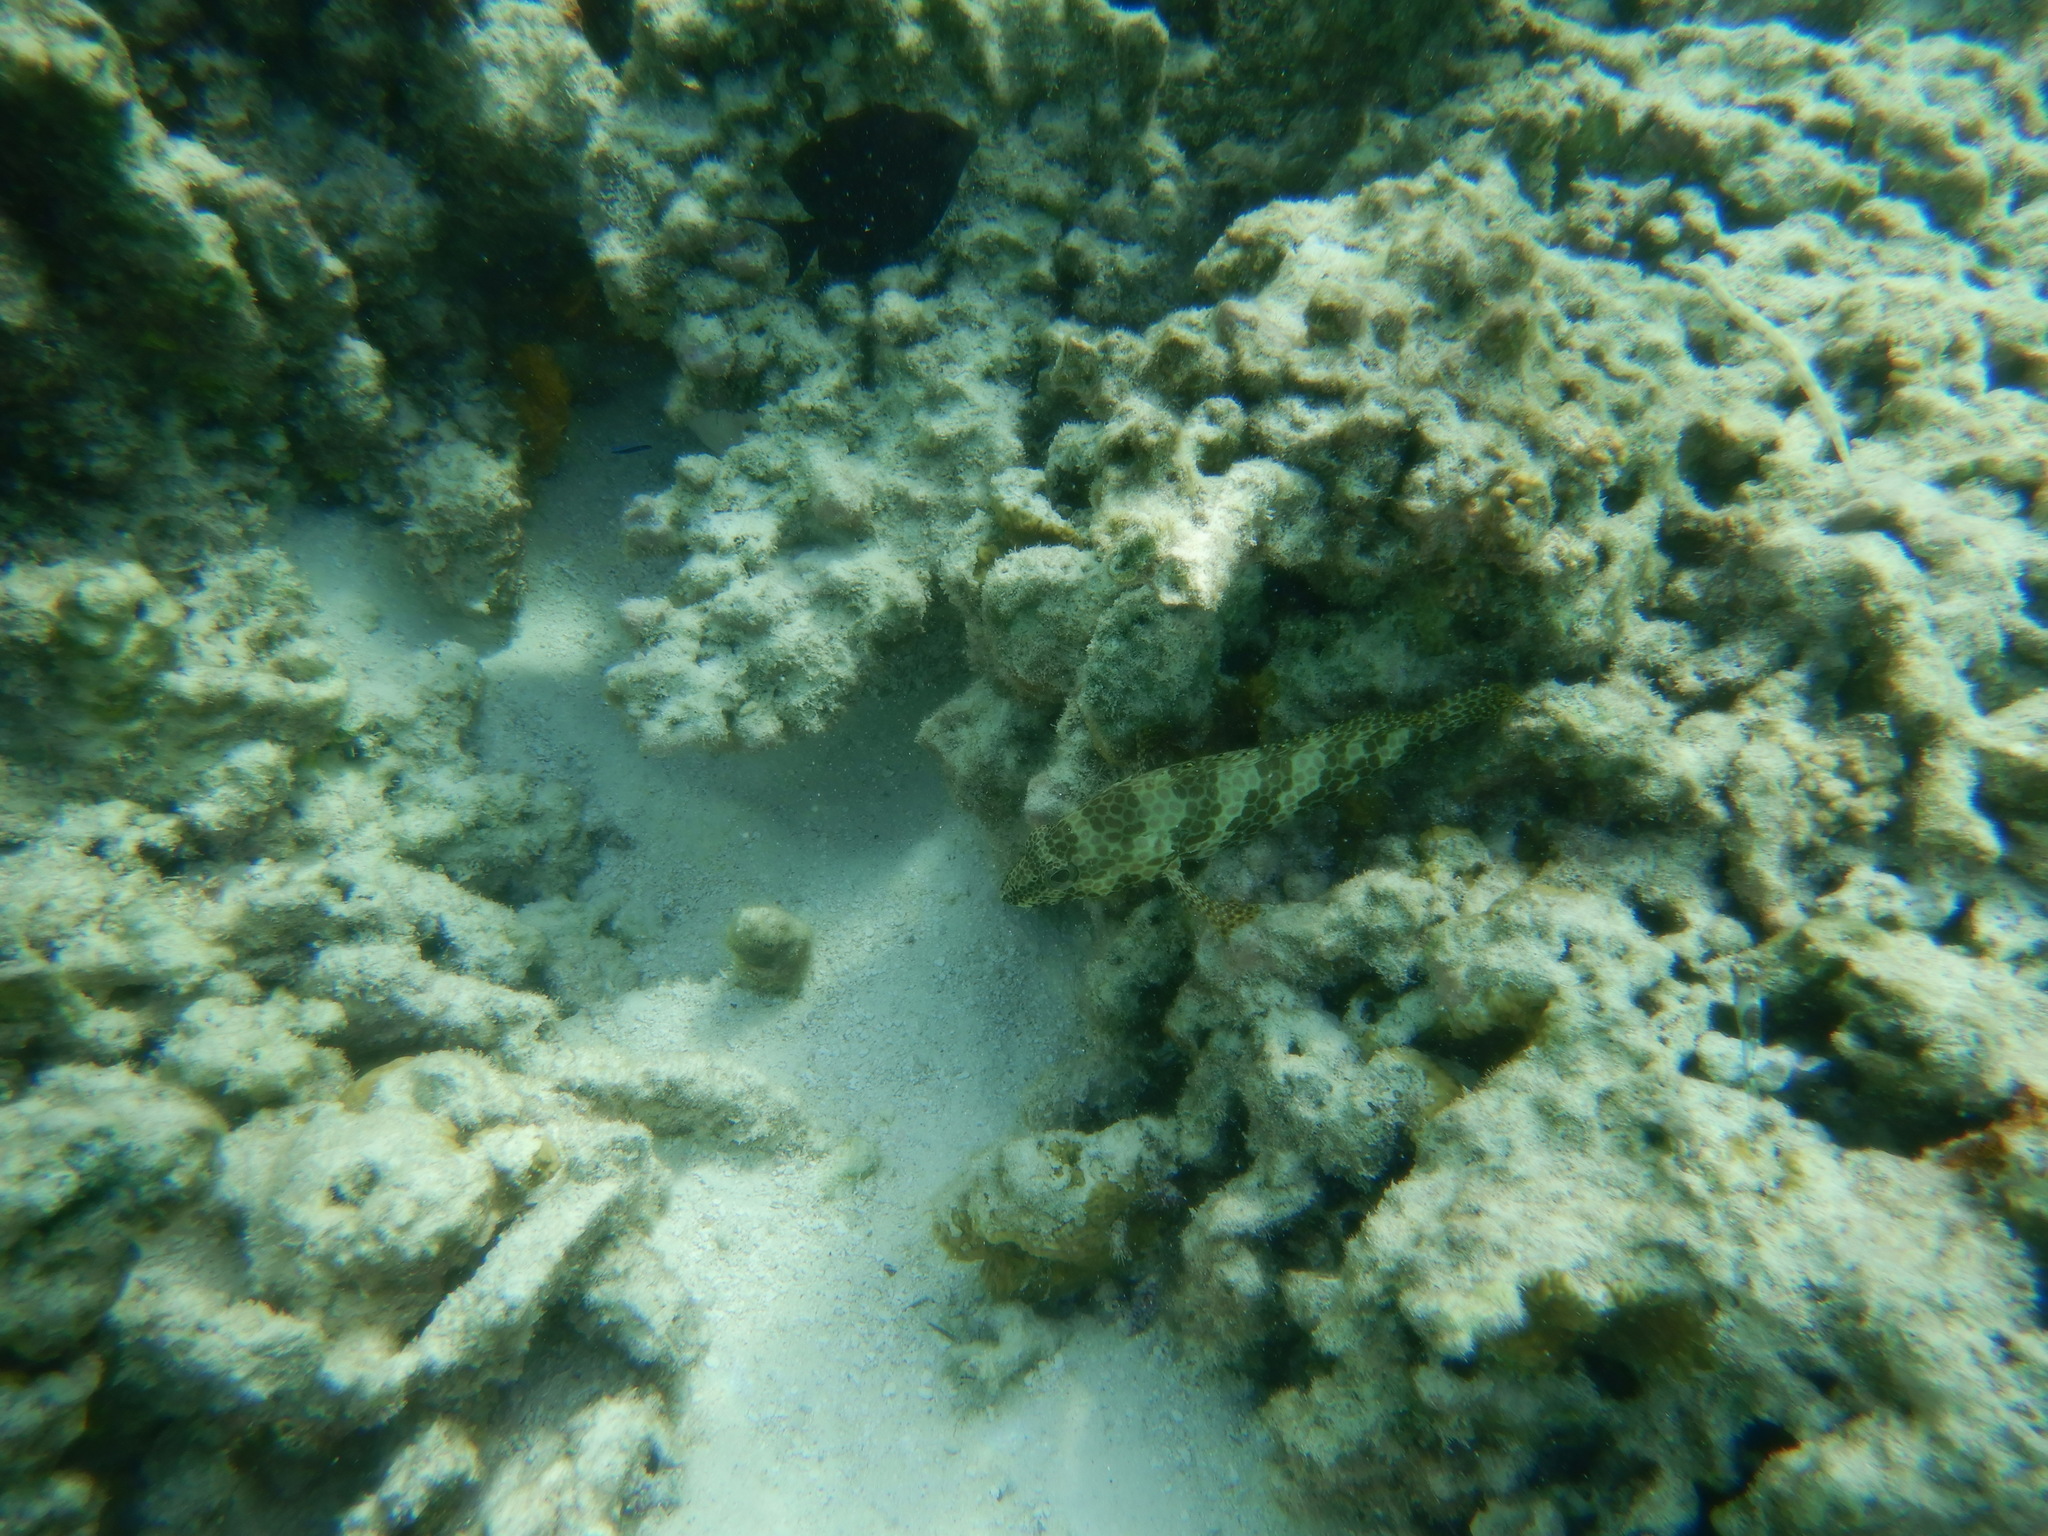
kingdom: Animalia
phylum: Chordata
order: Perciformes
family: Serranidae
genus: Epinephelus
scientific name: Epinephelus merra
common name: Honeycomb grouper
